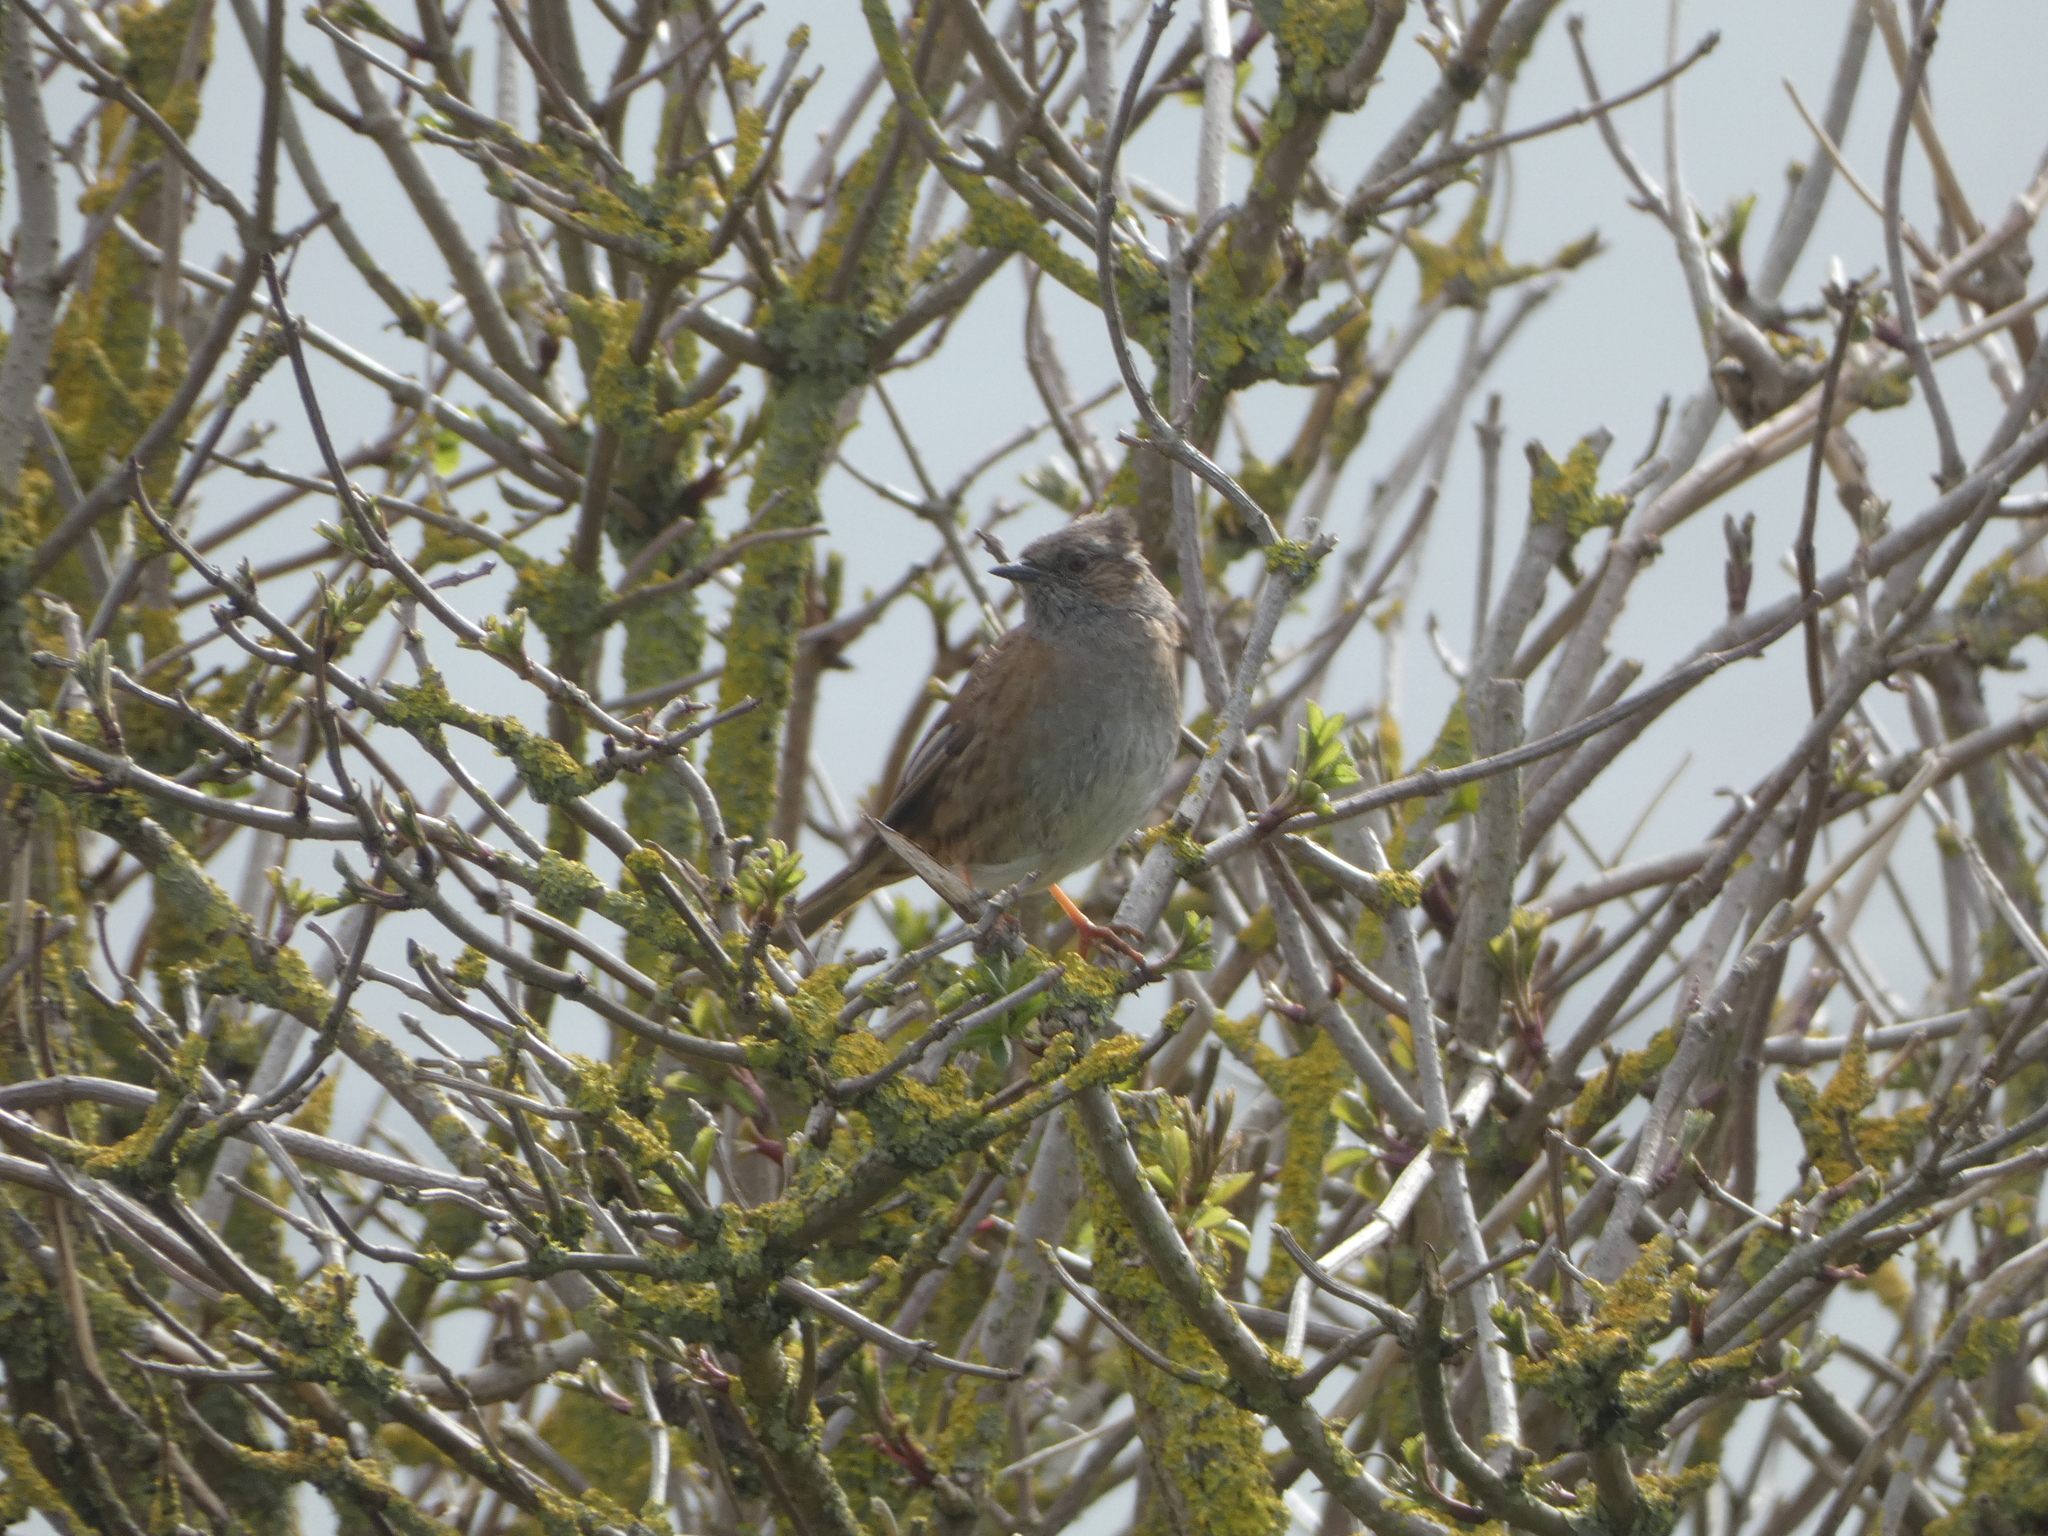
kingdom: Animalia
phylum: Chordata
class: Aves
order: Passeriformes
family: Prunellidae
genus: Prunella
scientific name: Prunella modularis
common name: Dunnock
